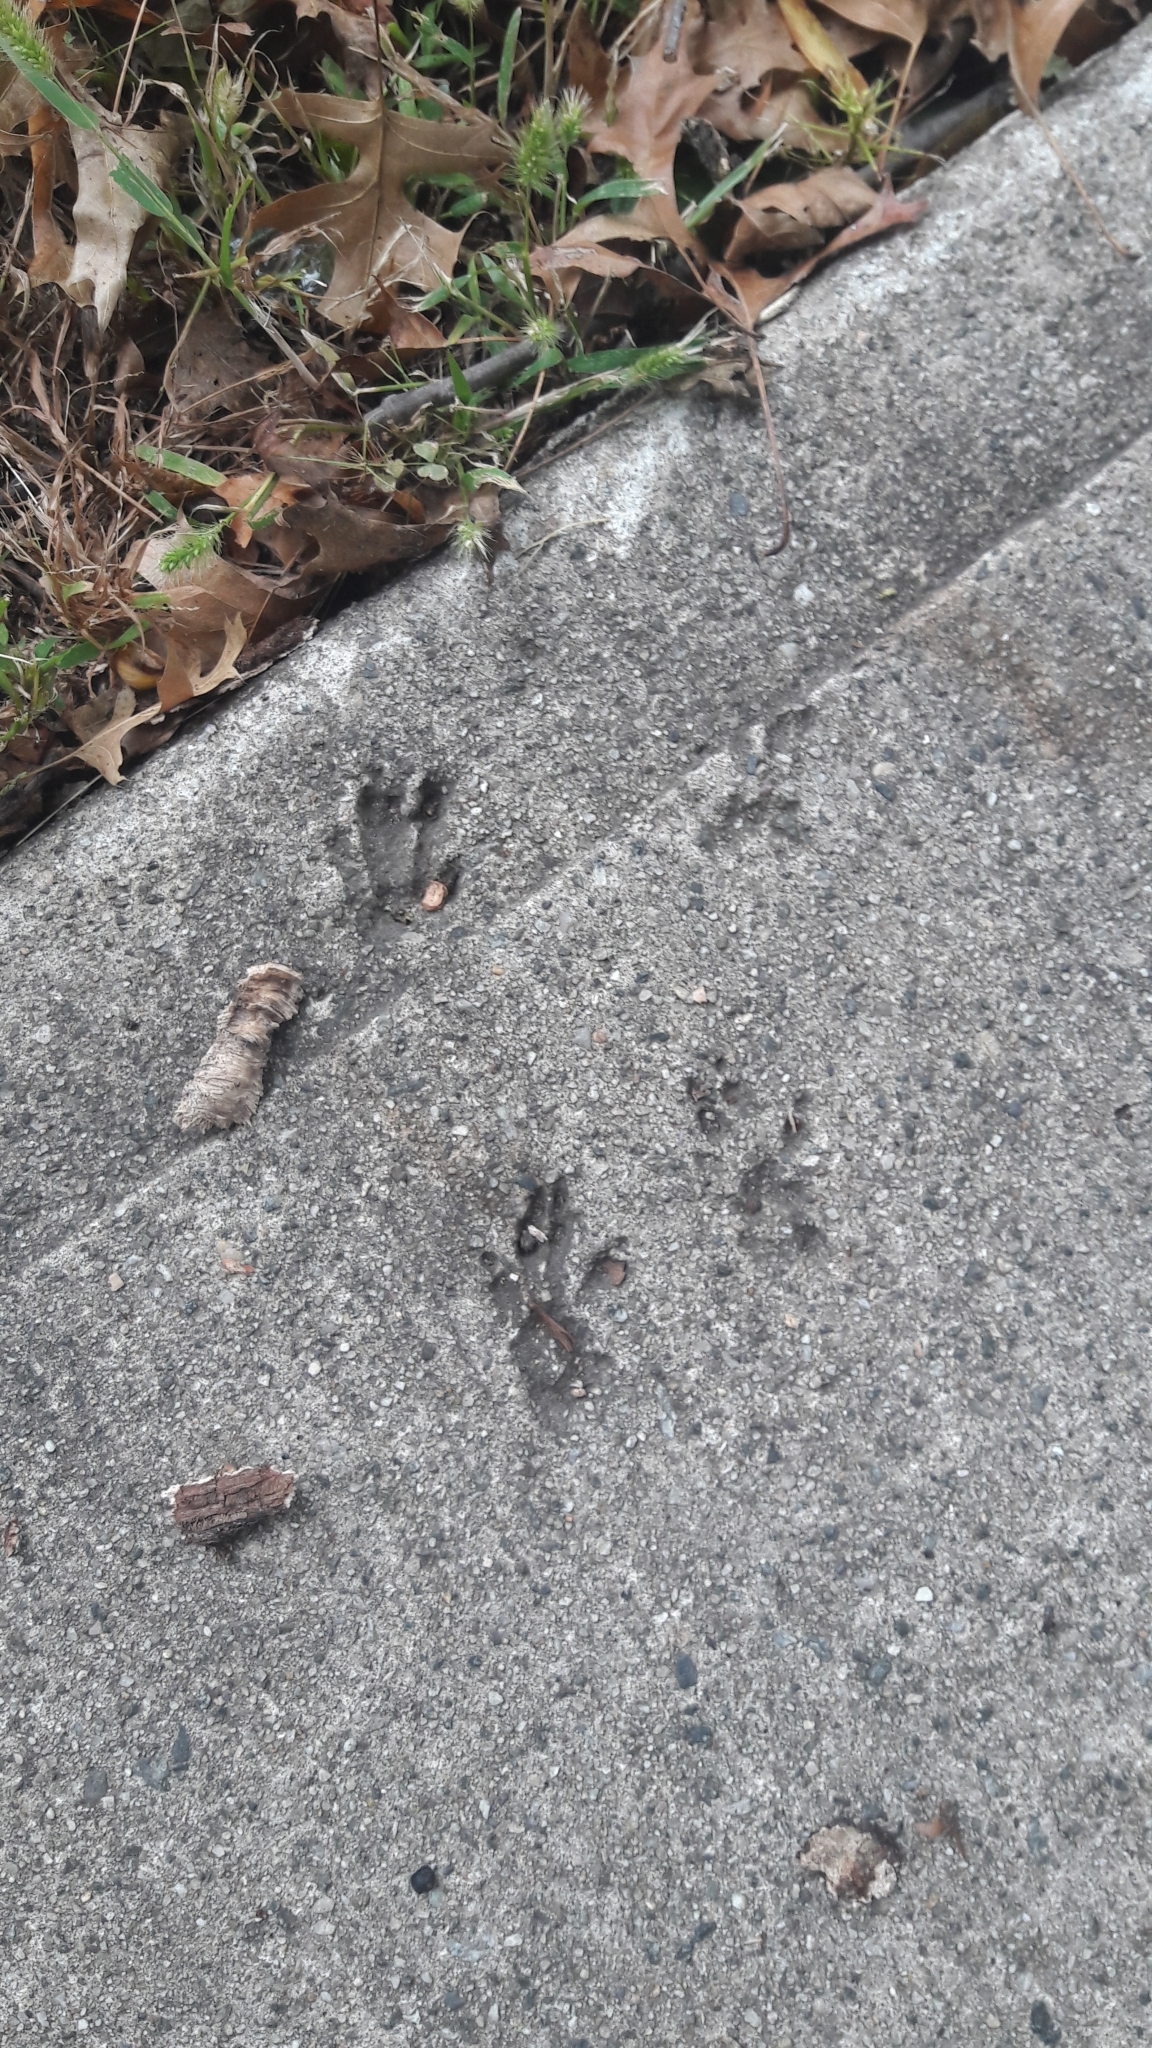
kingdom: Animalia
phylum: Chordata
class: Mammalia
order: Rodentia
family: Sciuridae
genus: Sciurus
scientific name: Sciurus carolinensis
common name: Eastern gray squirrel
